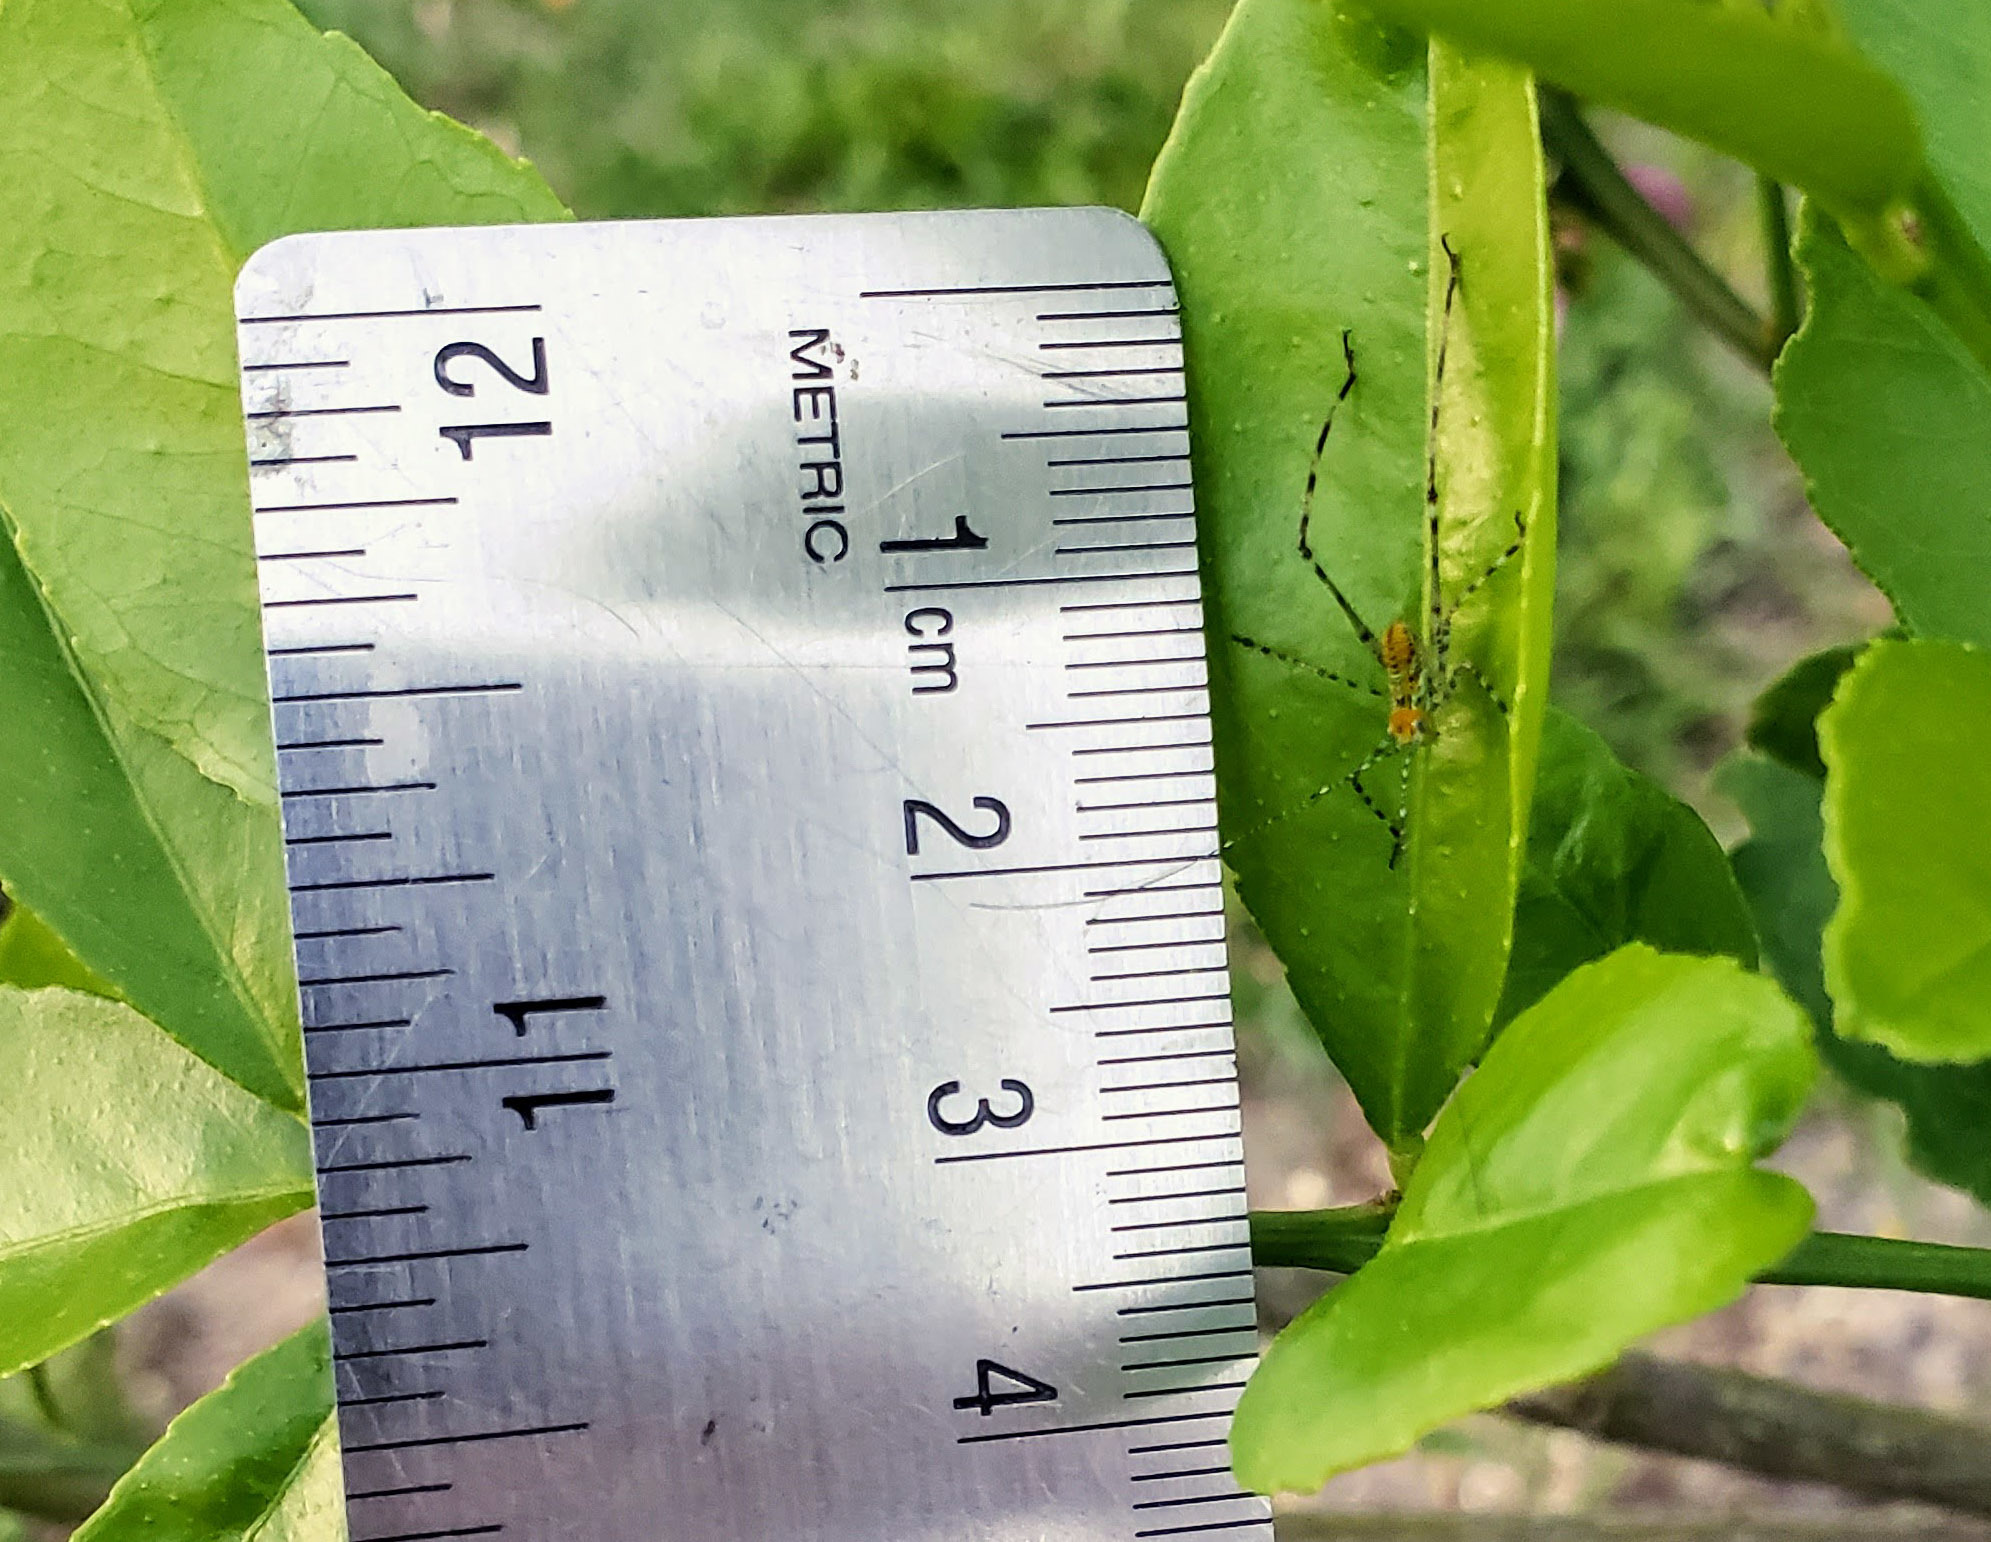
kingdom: Animalia
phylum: Arthropoda
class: Insecta
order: Orthoptera
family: Tettigoniidae
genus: Stilpnochlora
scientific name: Stilpnochlora couloniana
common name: Giant katydid
